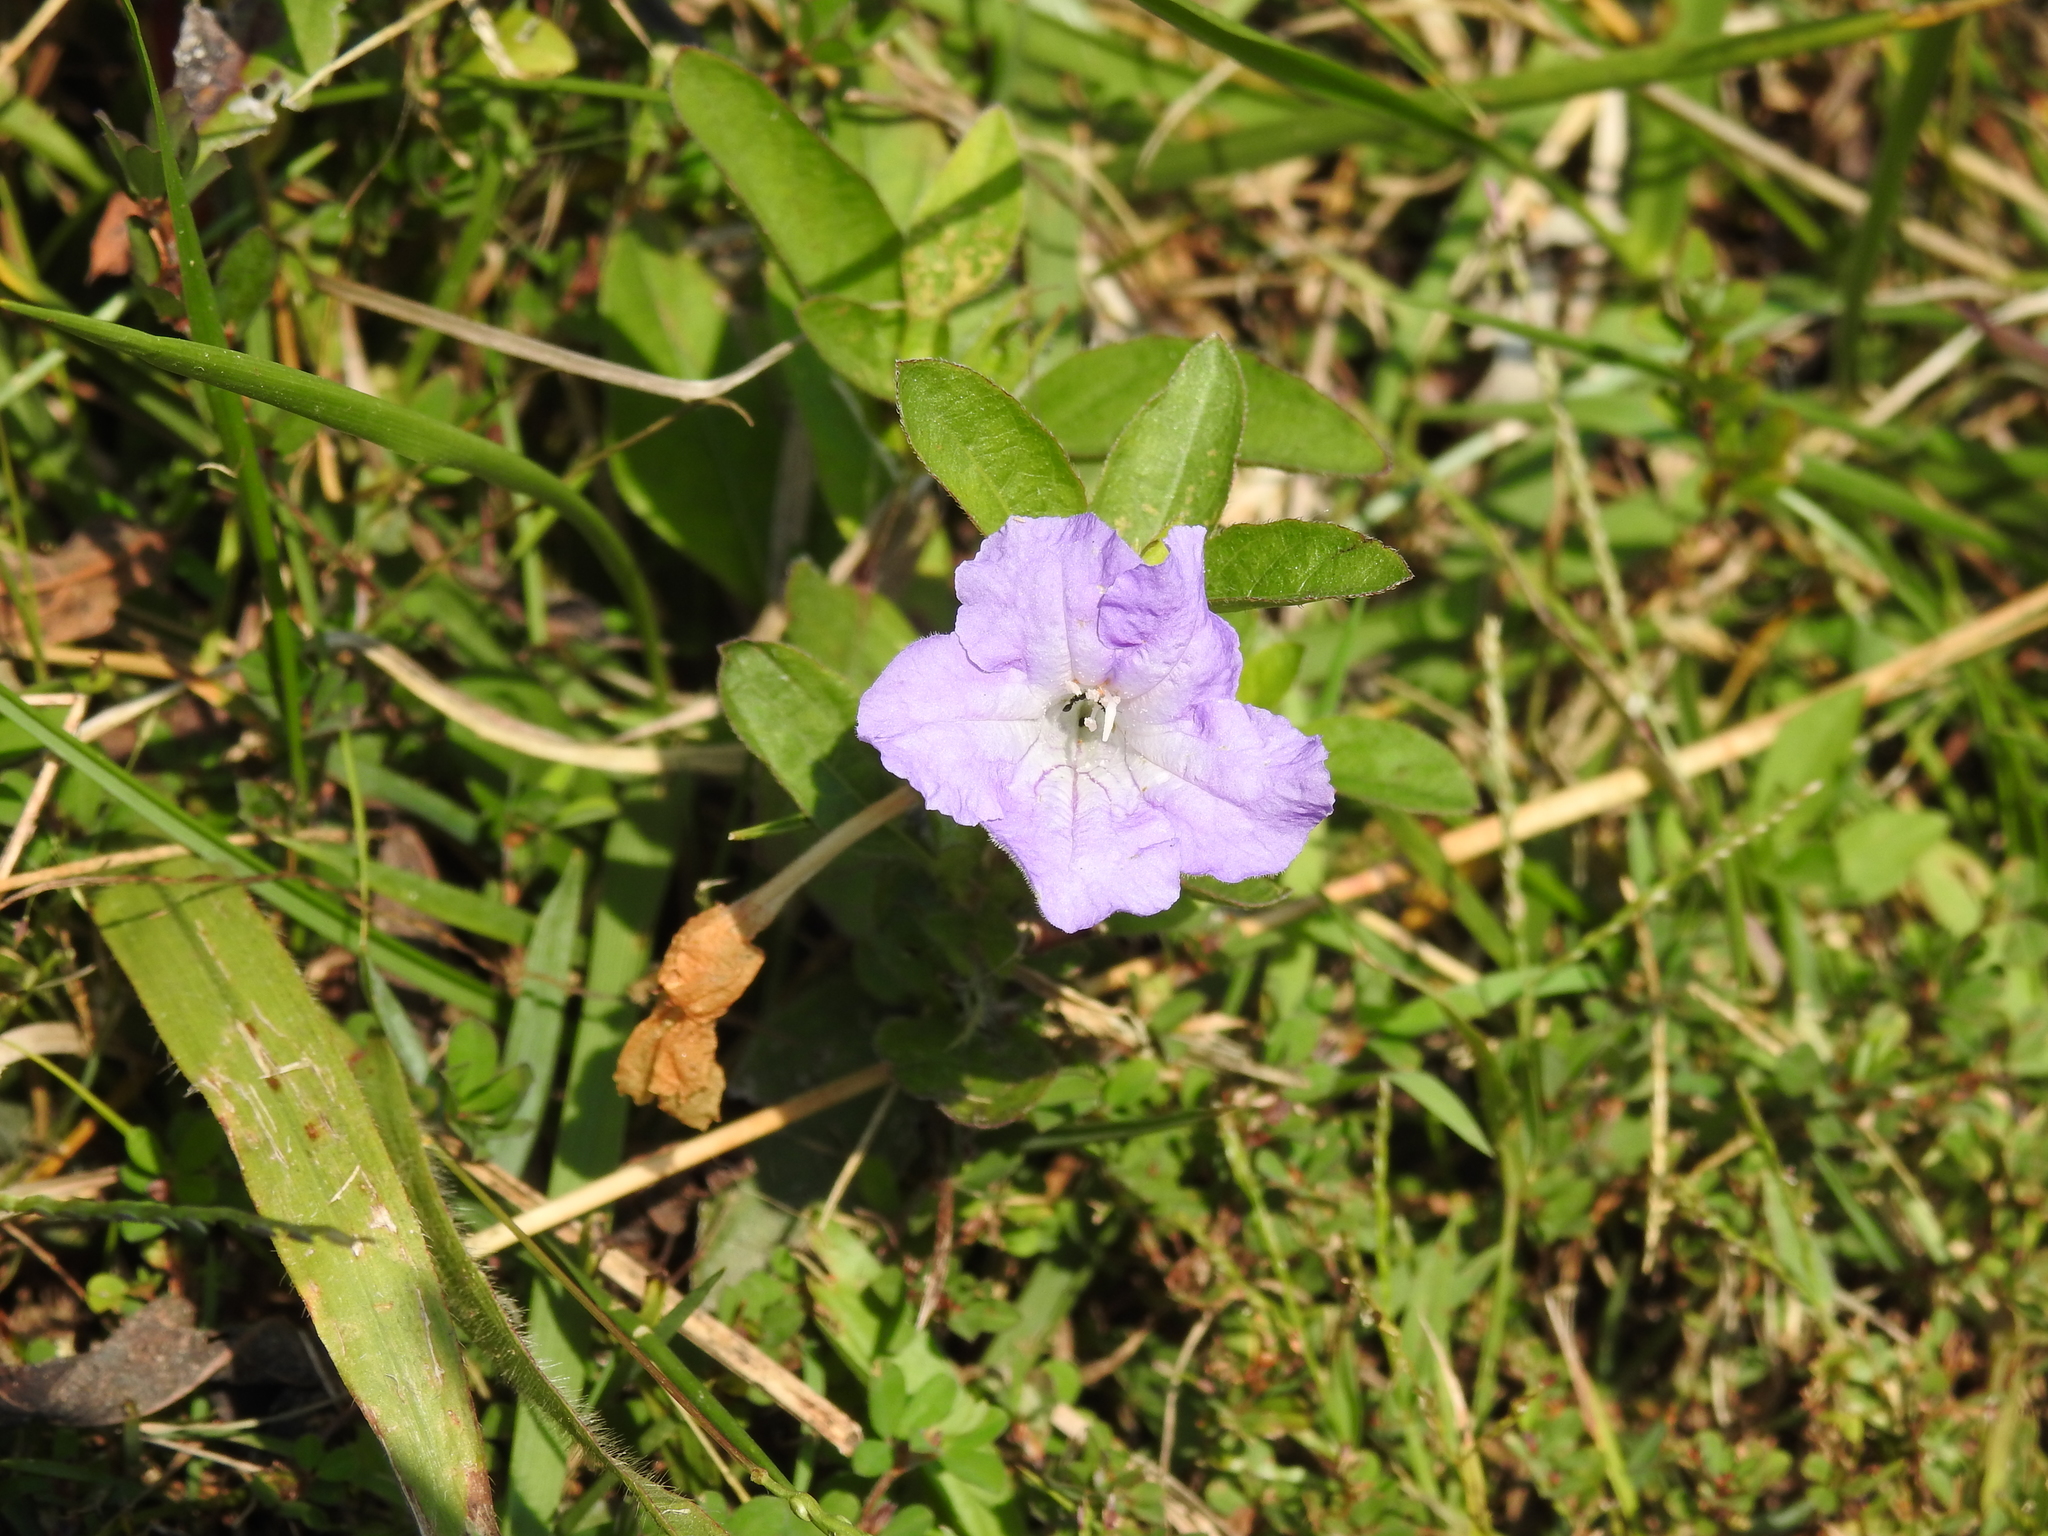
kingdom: Plantae
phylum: Tracheophyta
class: Magnoliopsida
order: Lamiales
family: Acanthaceae
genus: Ruellia
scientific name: Ruellia humilis
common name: Fringe-leaf ruellia
